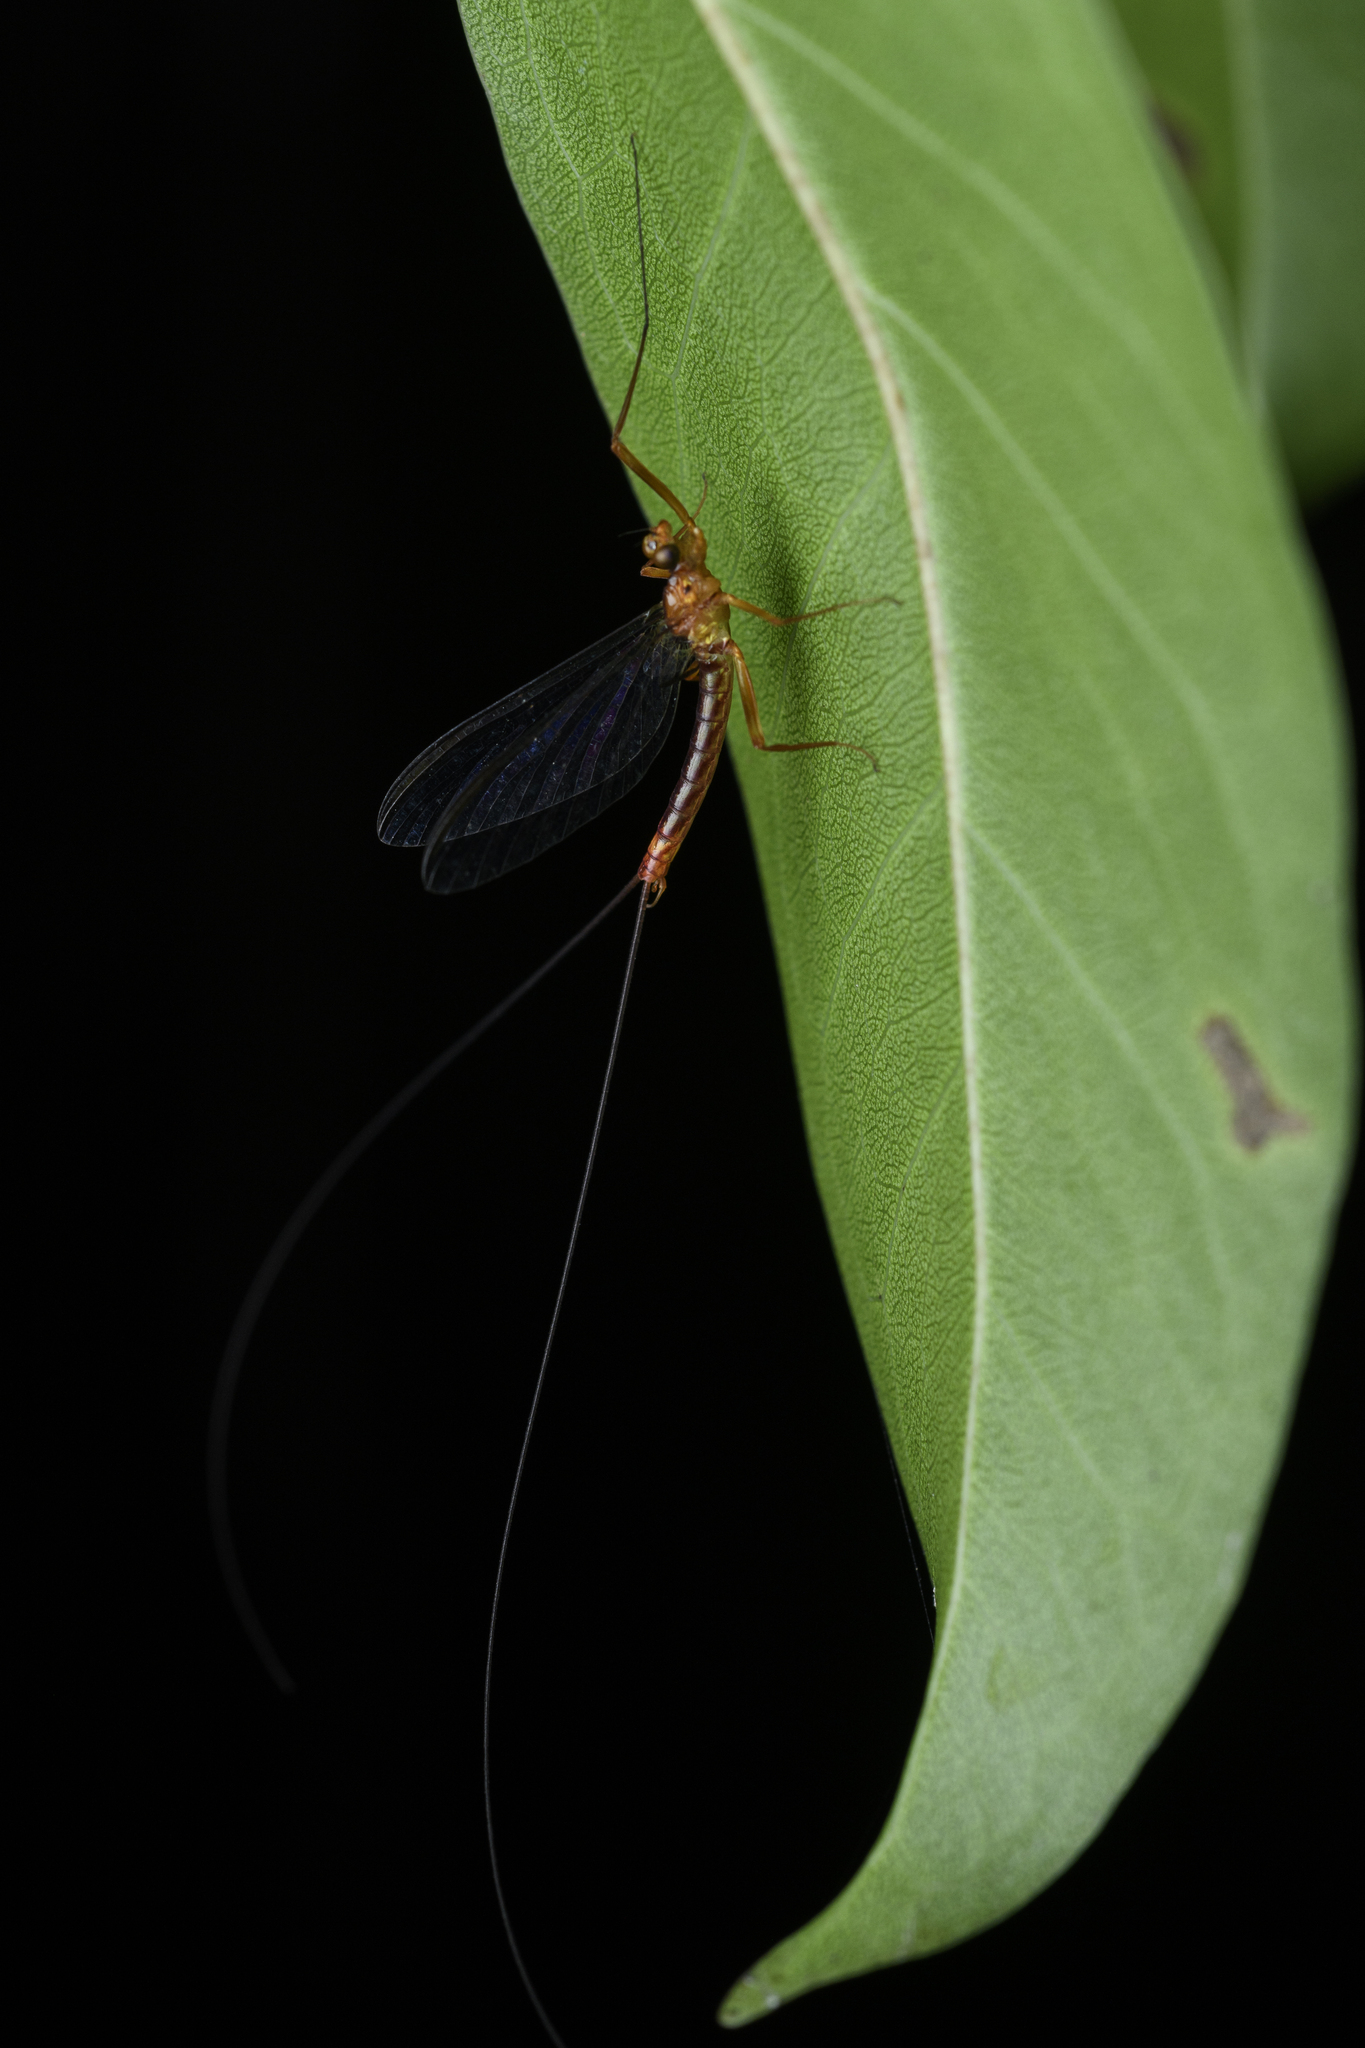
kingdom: Animalia
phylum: Arthropoda
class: Insecta
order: Ephemeroptera
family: Heptageniidae
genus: Paegniodes
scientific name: Paegniodes cupulatus
